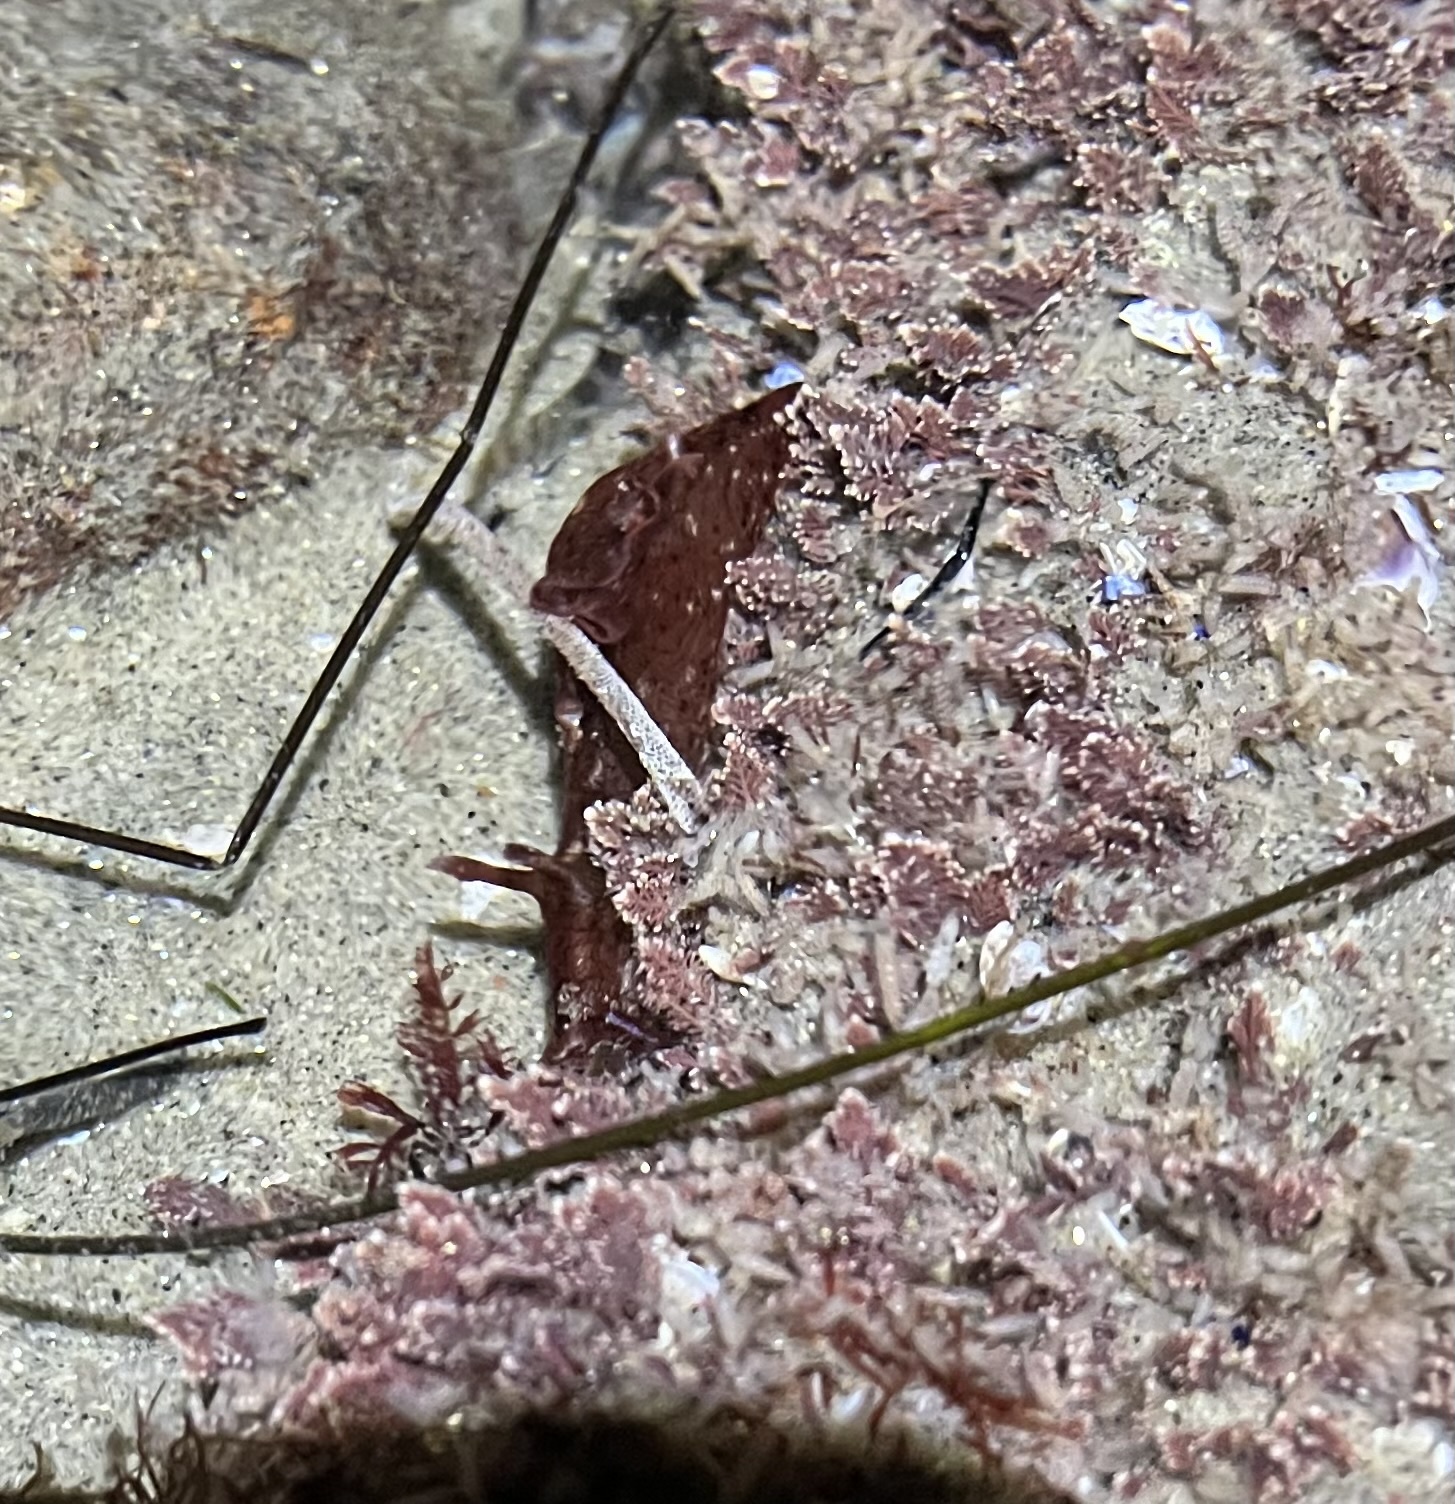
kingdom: Animalia
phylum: Mollusca
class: Gastropoda
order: Aplysiida
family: Aplysiidae
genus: Aplysia
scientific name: Aplysia californica
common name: California seahare
